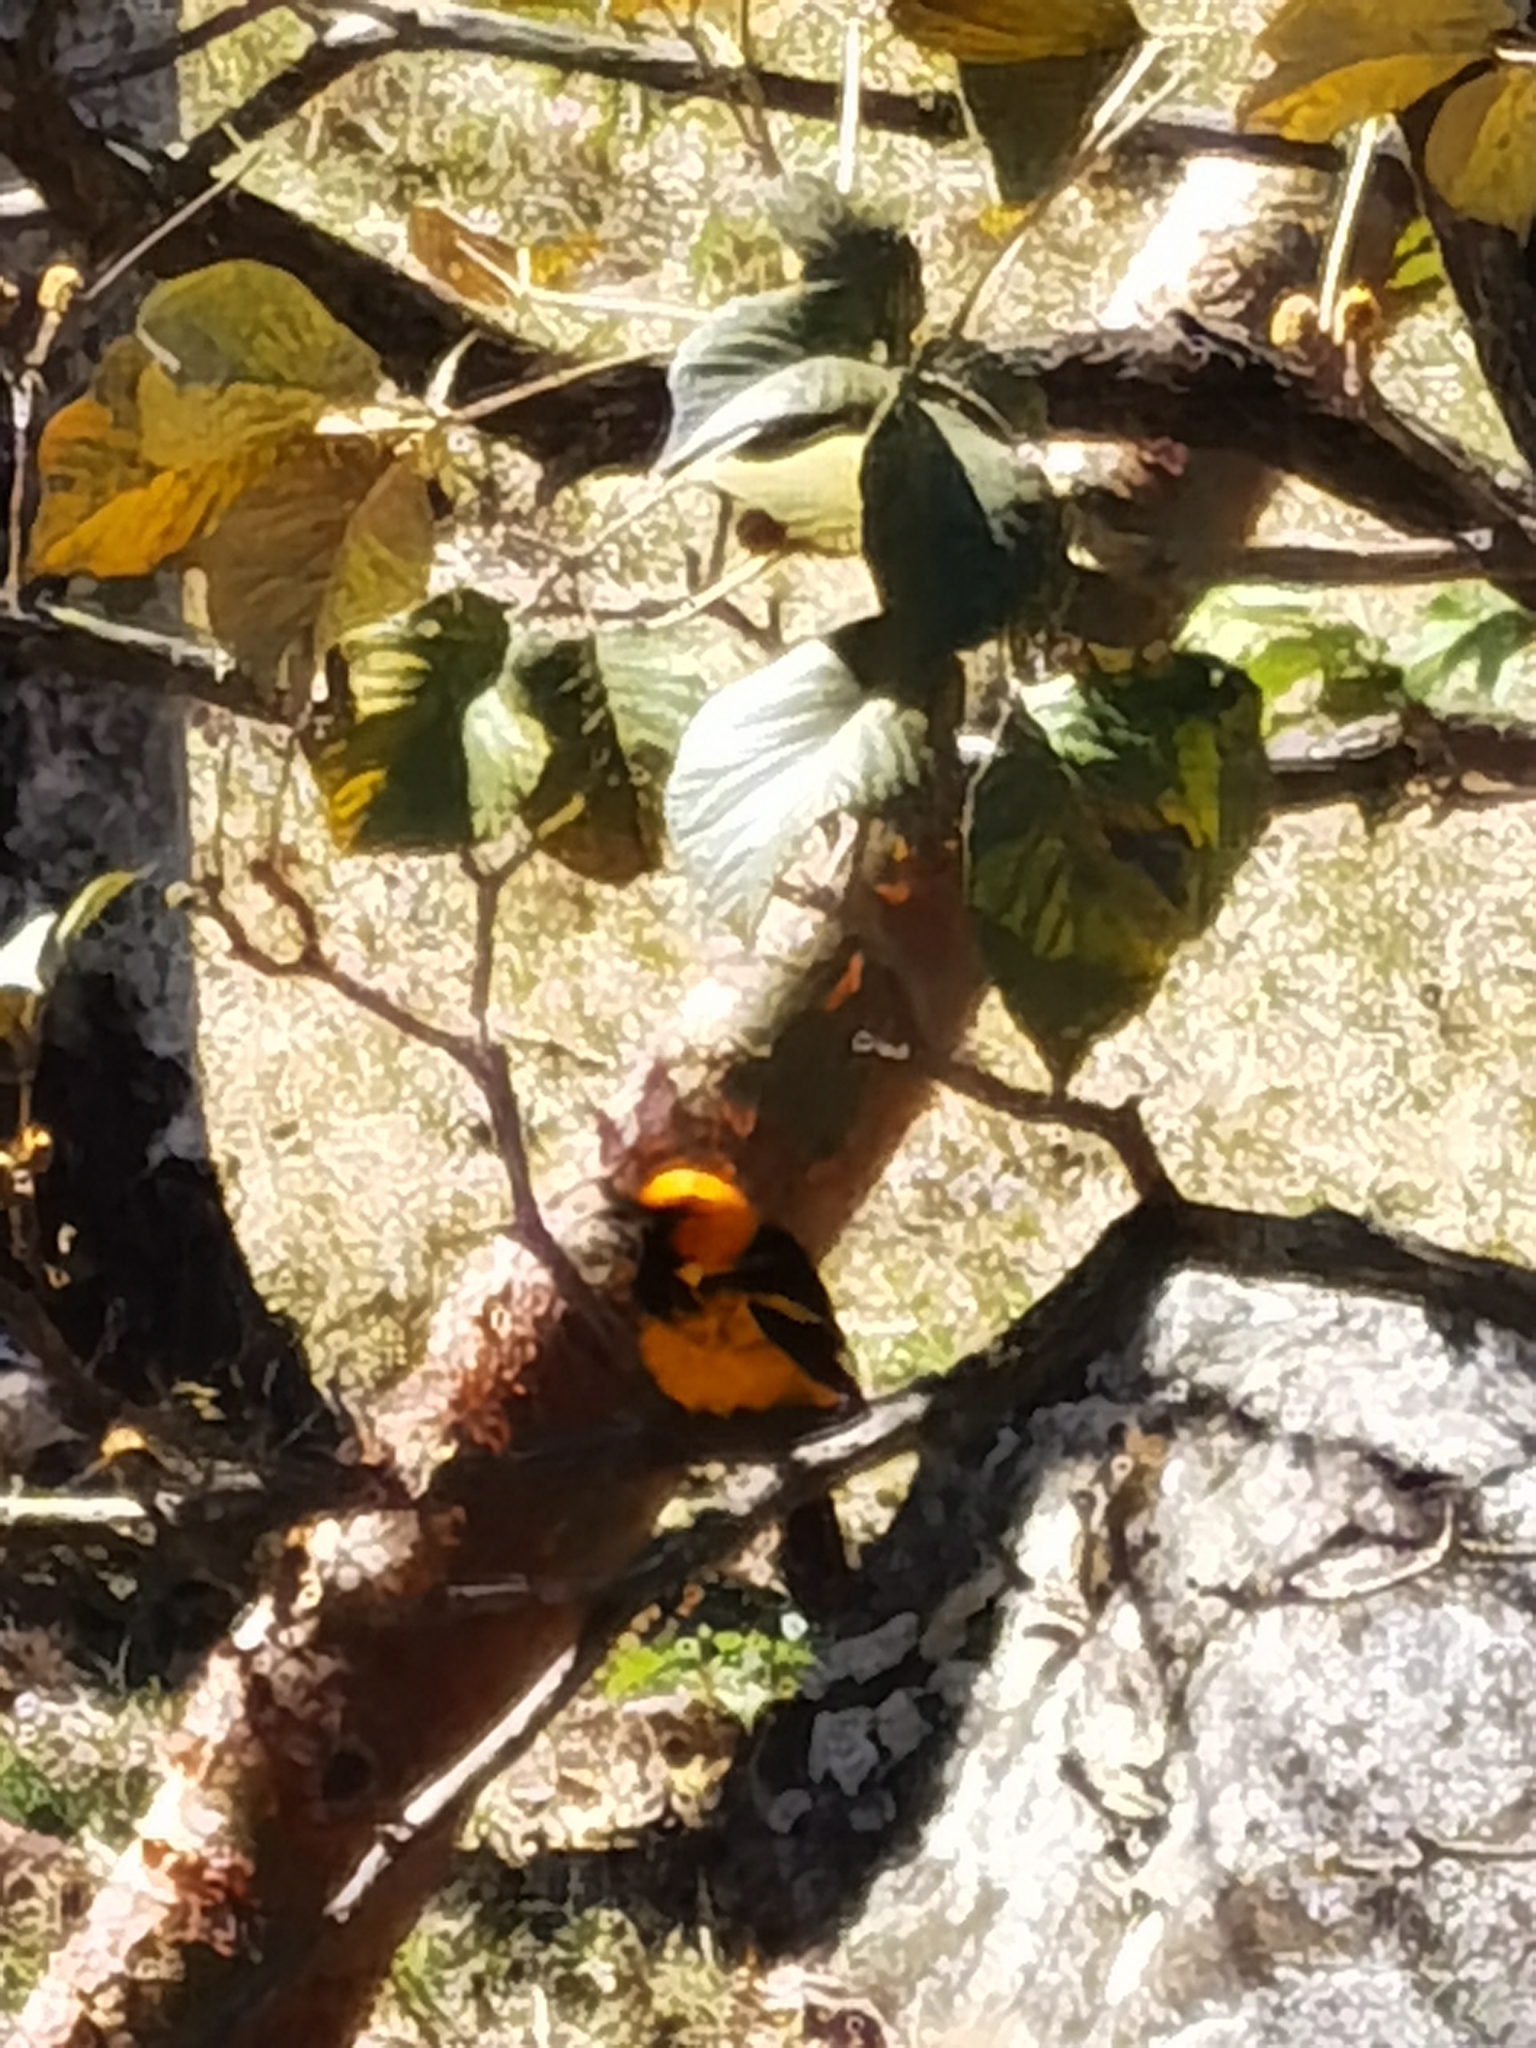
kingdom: Animalia
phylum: Chordata
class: Aves
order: Passeriformes
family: Icteridae
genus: Icterus
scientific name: Icterus pectoralis
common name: Spot-breasted oriole
